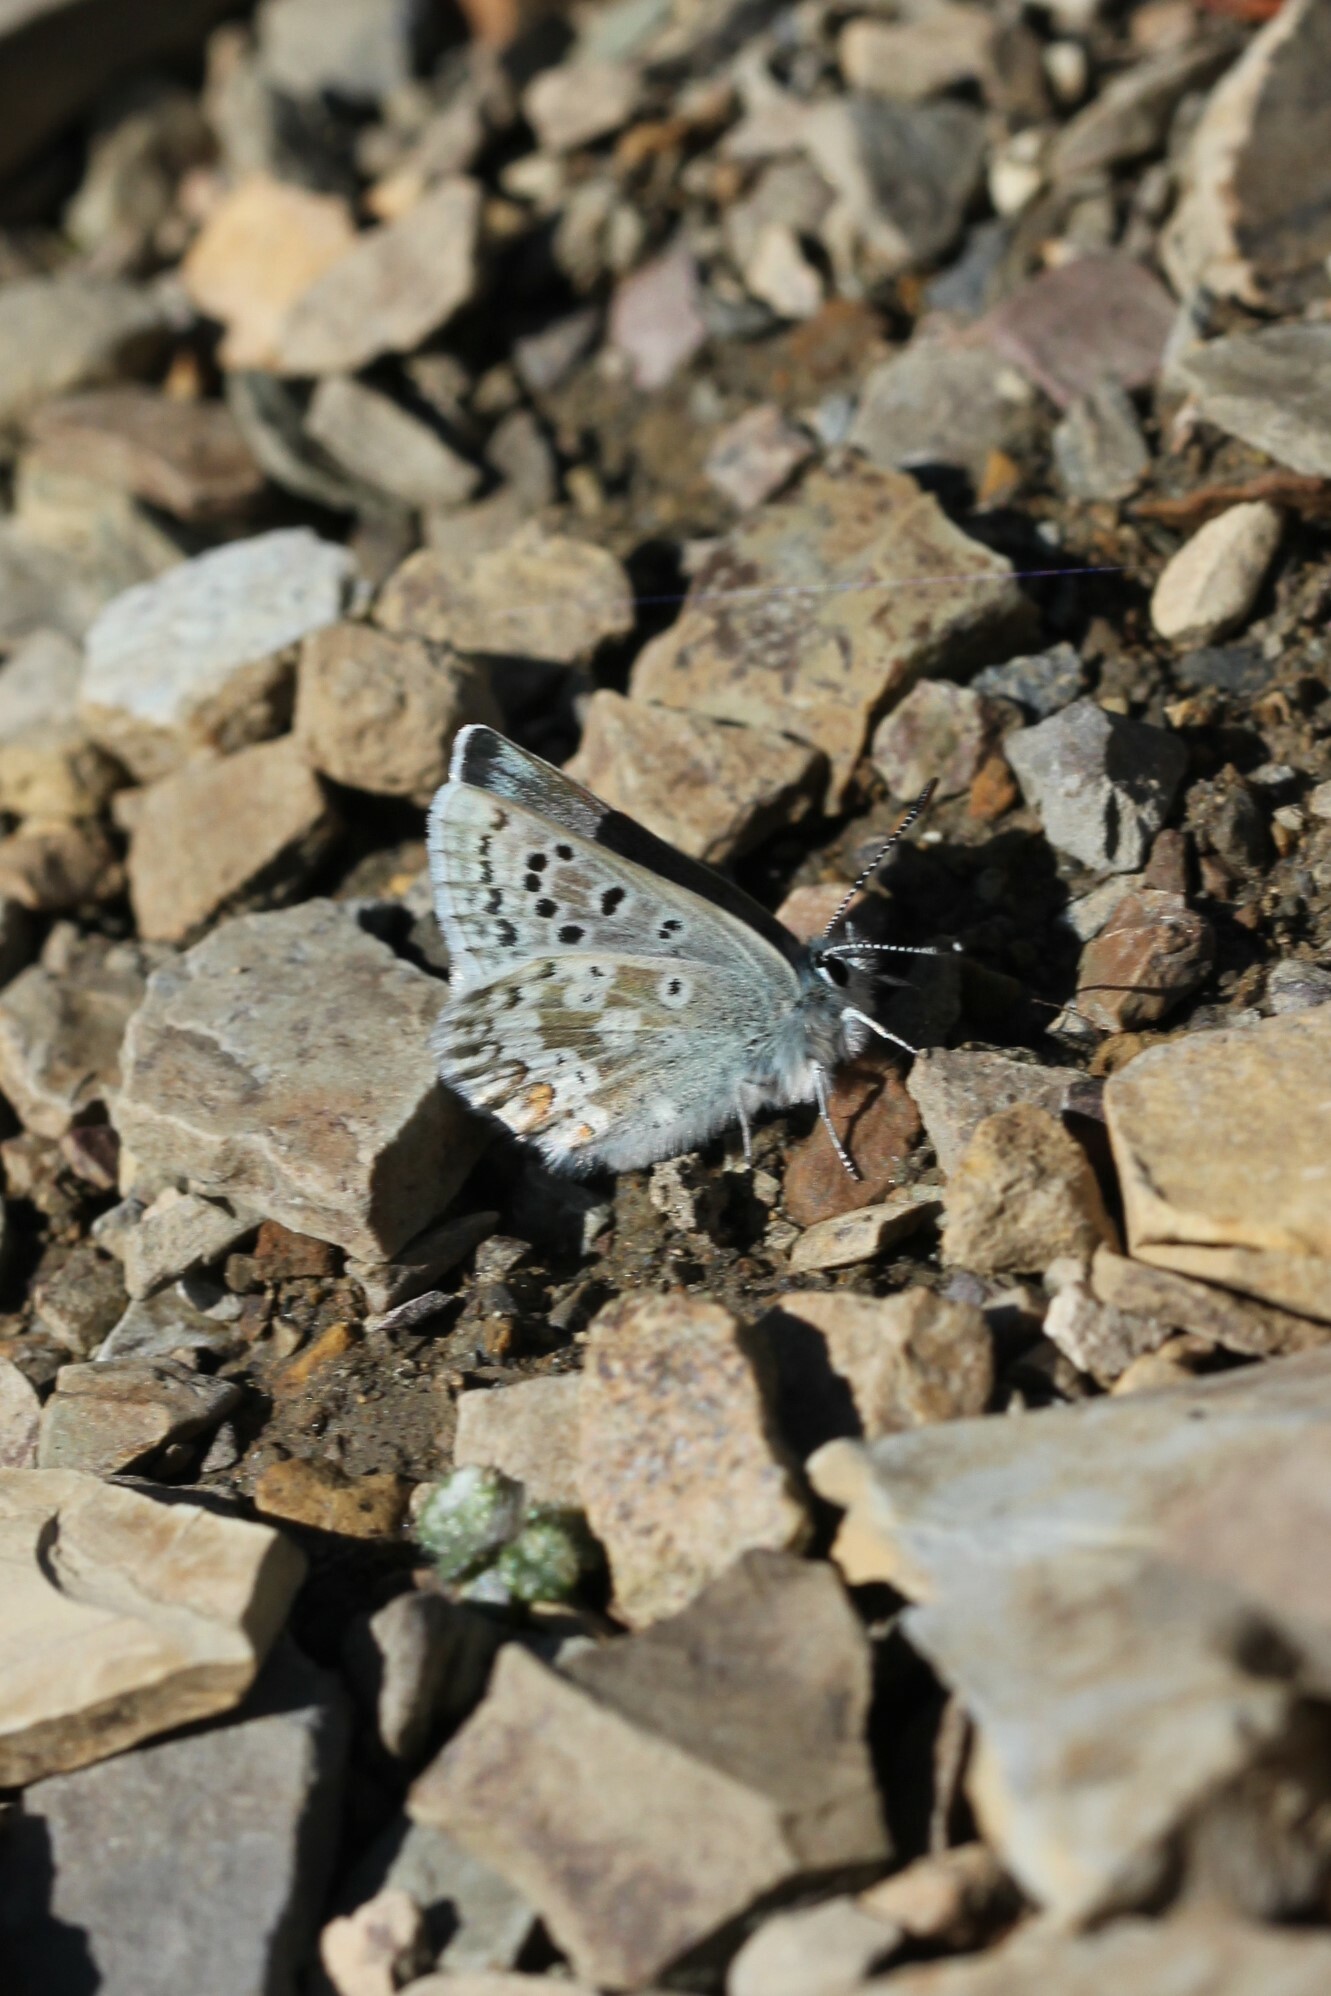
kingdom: Animalia
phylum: Arthropoda
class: Insecta
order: Lepidoptera
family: Lycaenidae
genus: Agriades
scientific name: Agriades glandon
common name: Glandon blue
